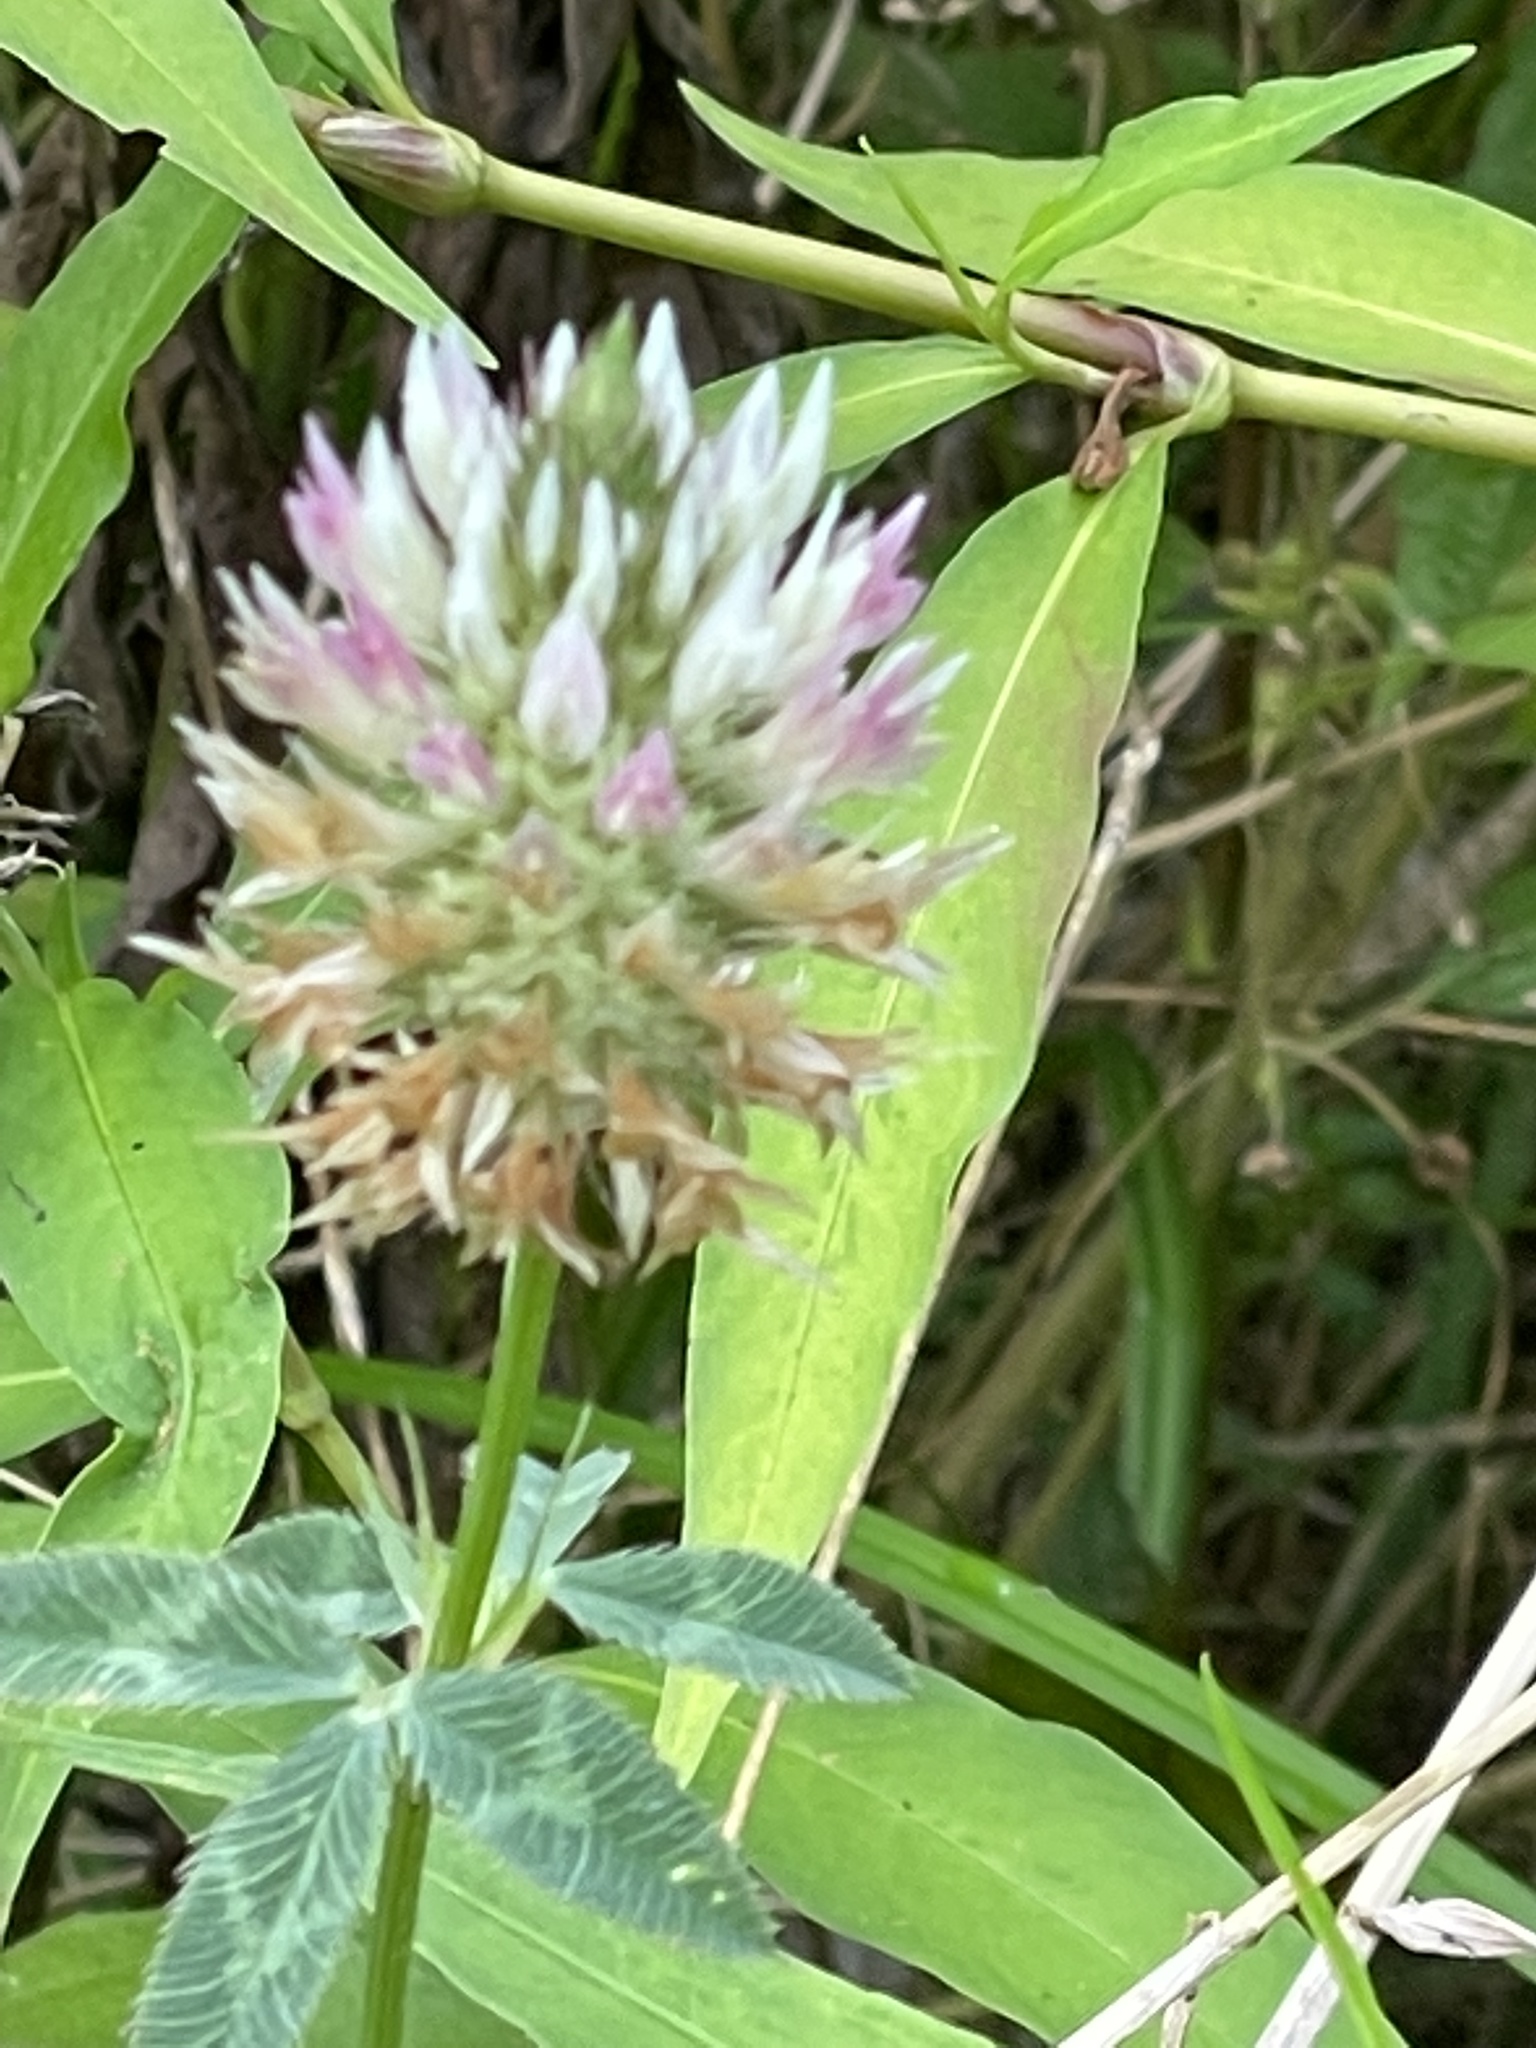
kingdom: Plantae
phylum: Tracheophyta
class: Magnoliopsida
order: Fabales
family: Fabaceae
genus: Trifolium
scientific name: Trifolium vesiculosum
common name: Arrowleaf clover
